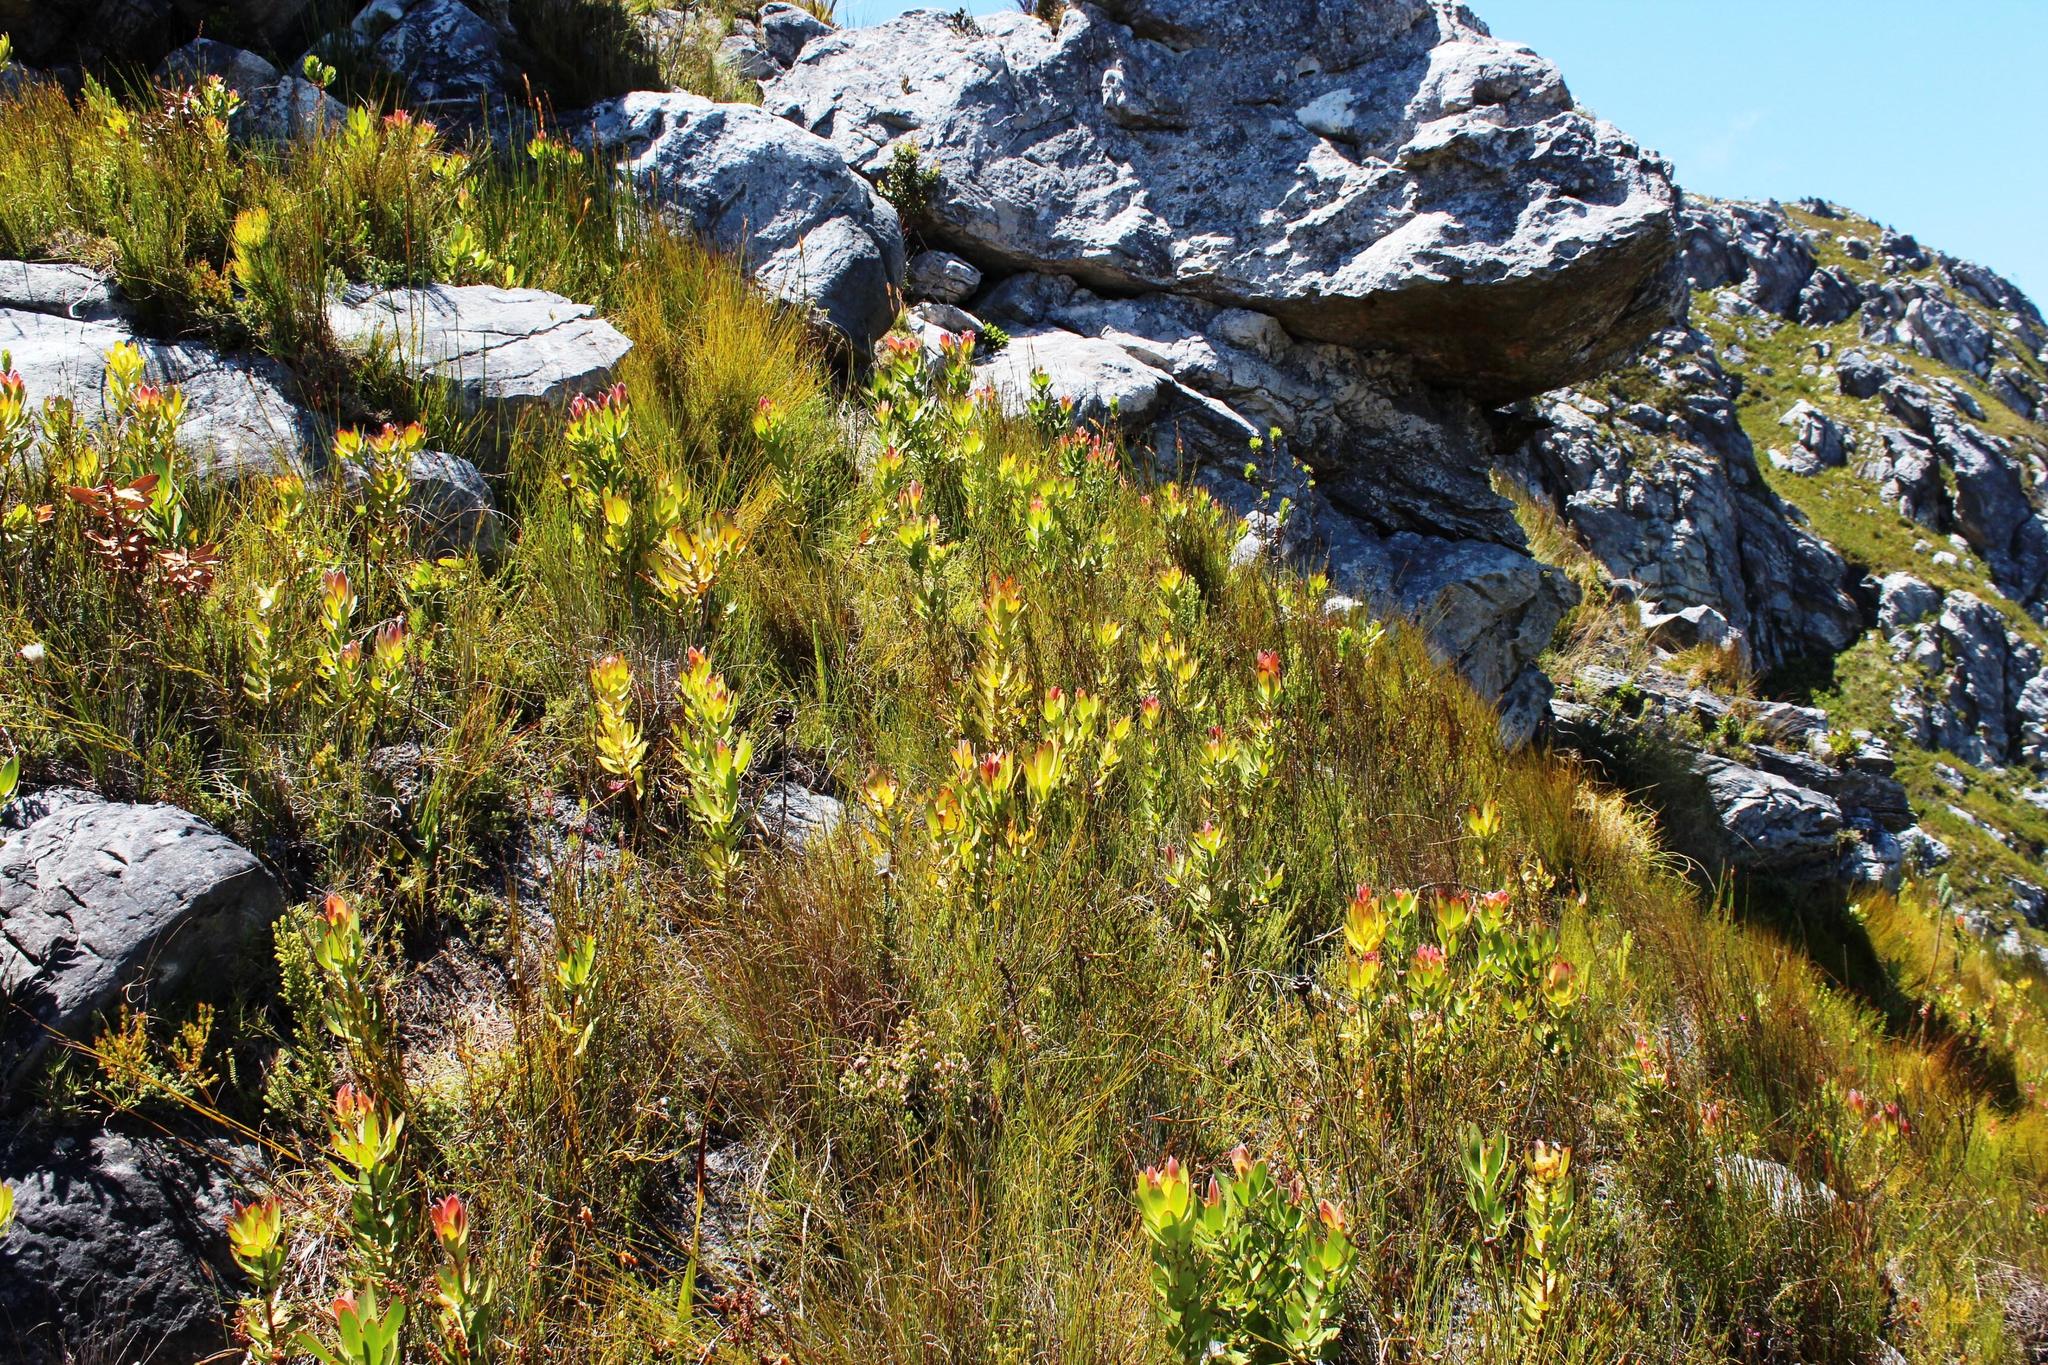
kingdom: Plantae
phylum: Tracheophyta
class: Magnoliopsida
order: Proteales
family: Proteaceae
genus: Leucadendron
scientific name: Leucadendron gandogeri
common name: Broad-leaf conebush
